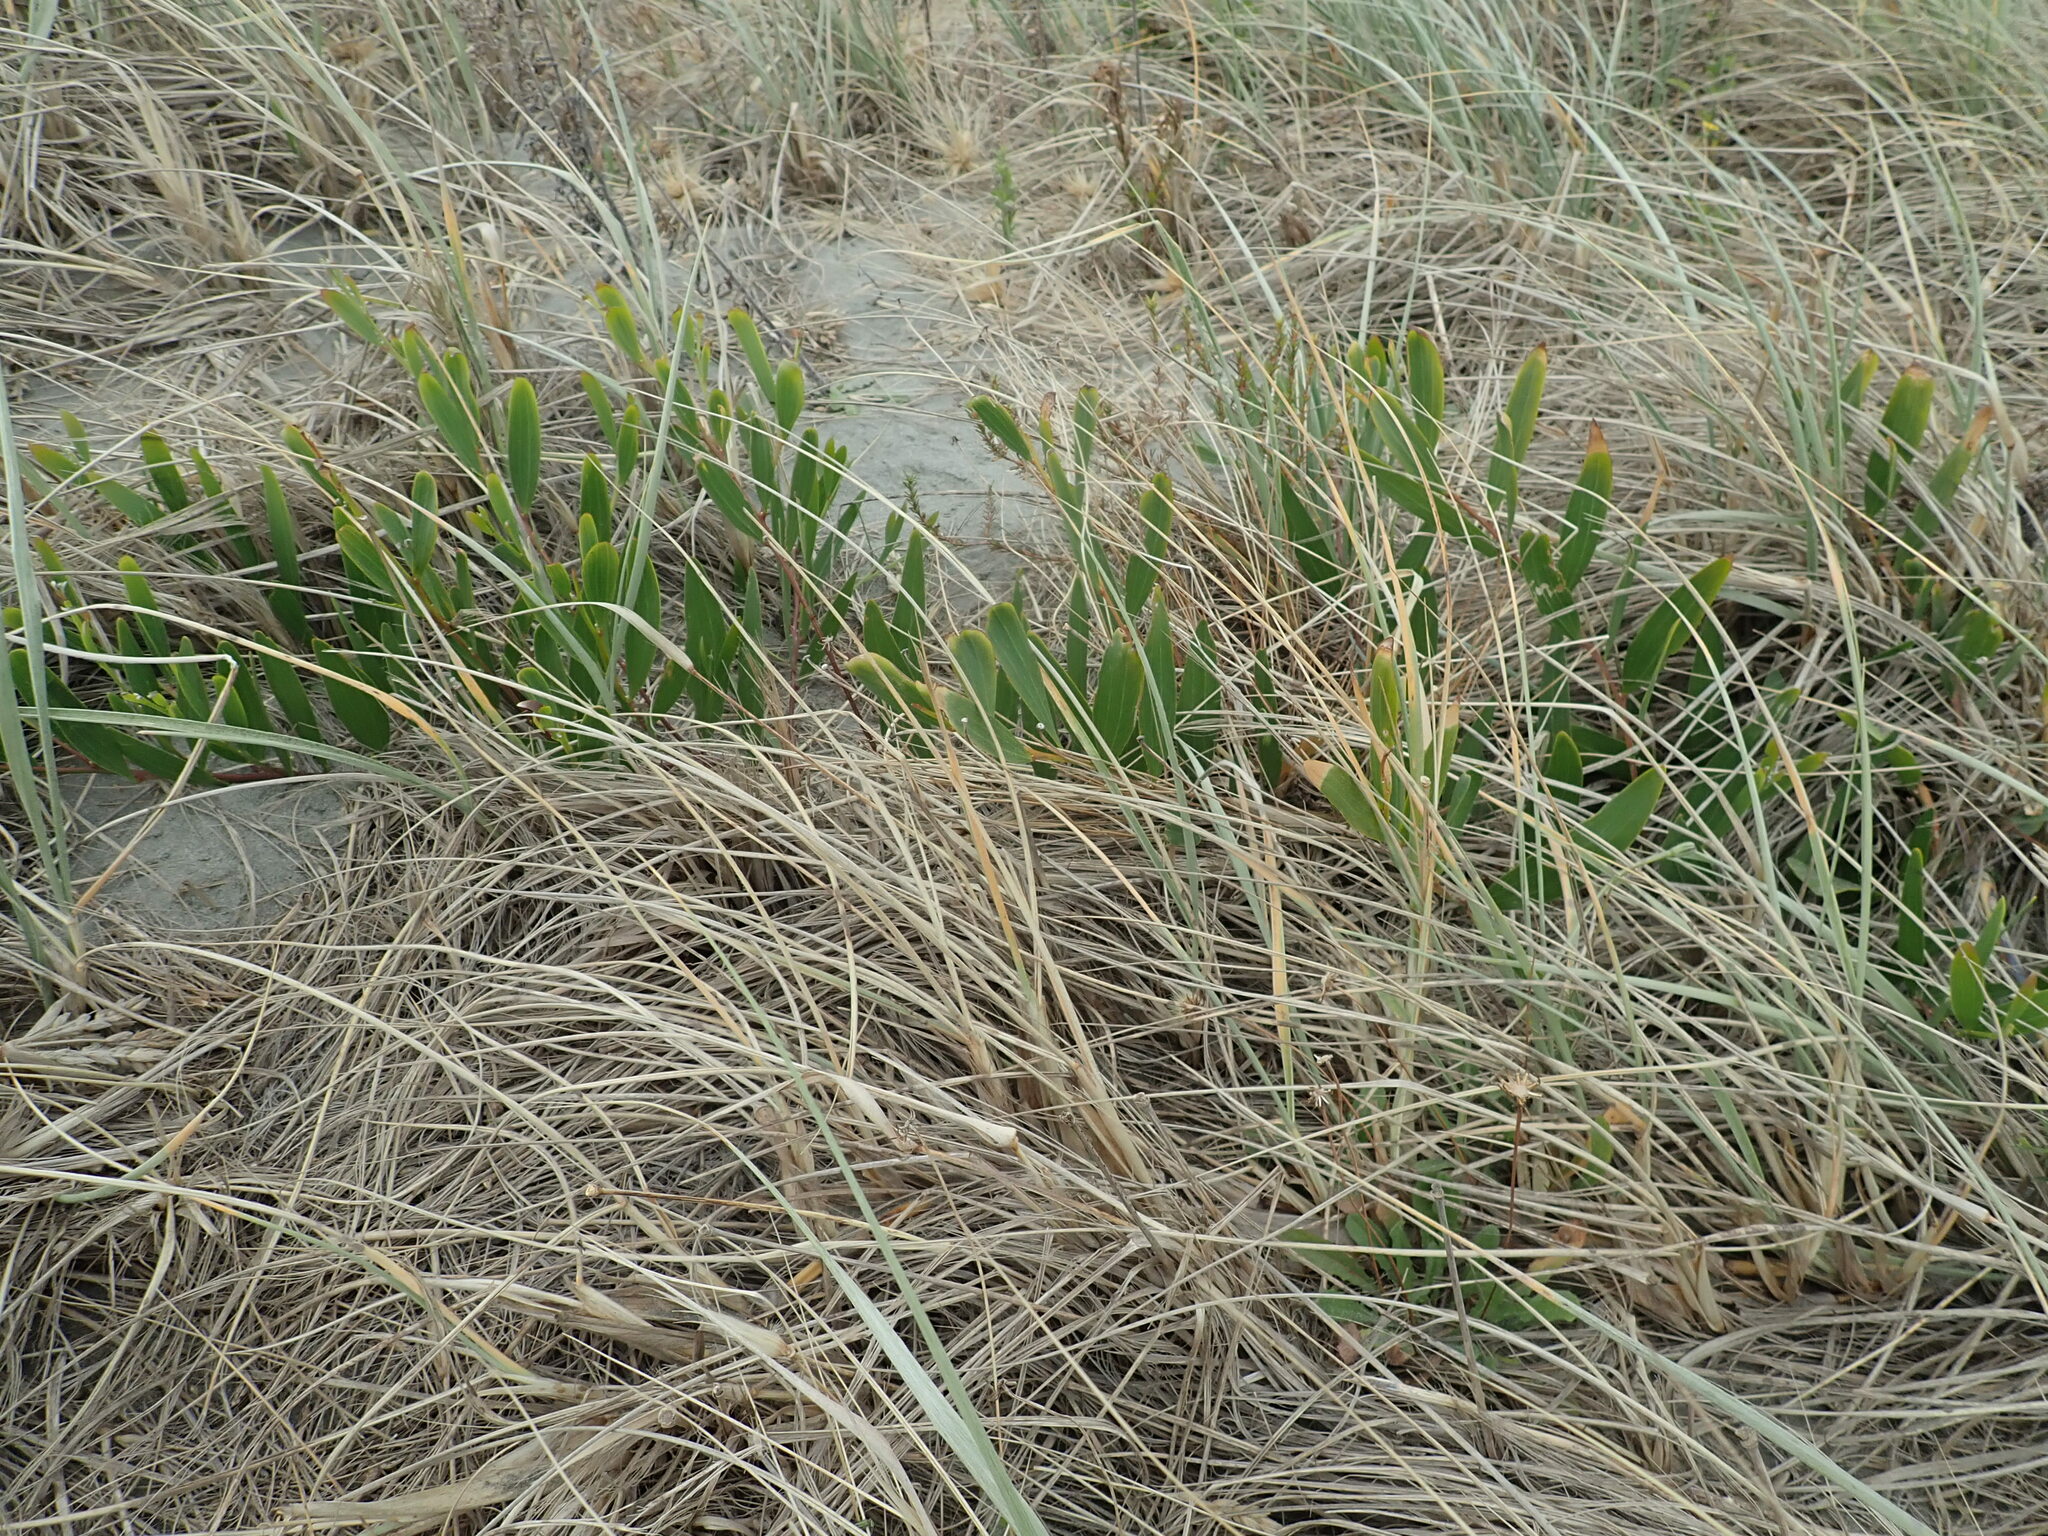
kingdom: Plantae
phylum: Tracheophyta
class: Magnoliopsida
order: Fabales
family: Fabaceae
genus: Acacia
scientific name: Acacia longifolia
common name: Sydney golden wattle
